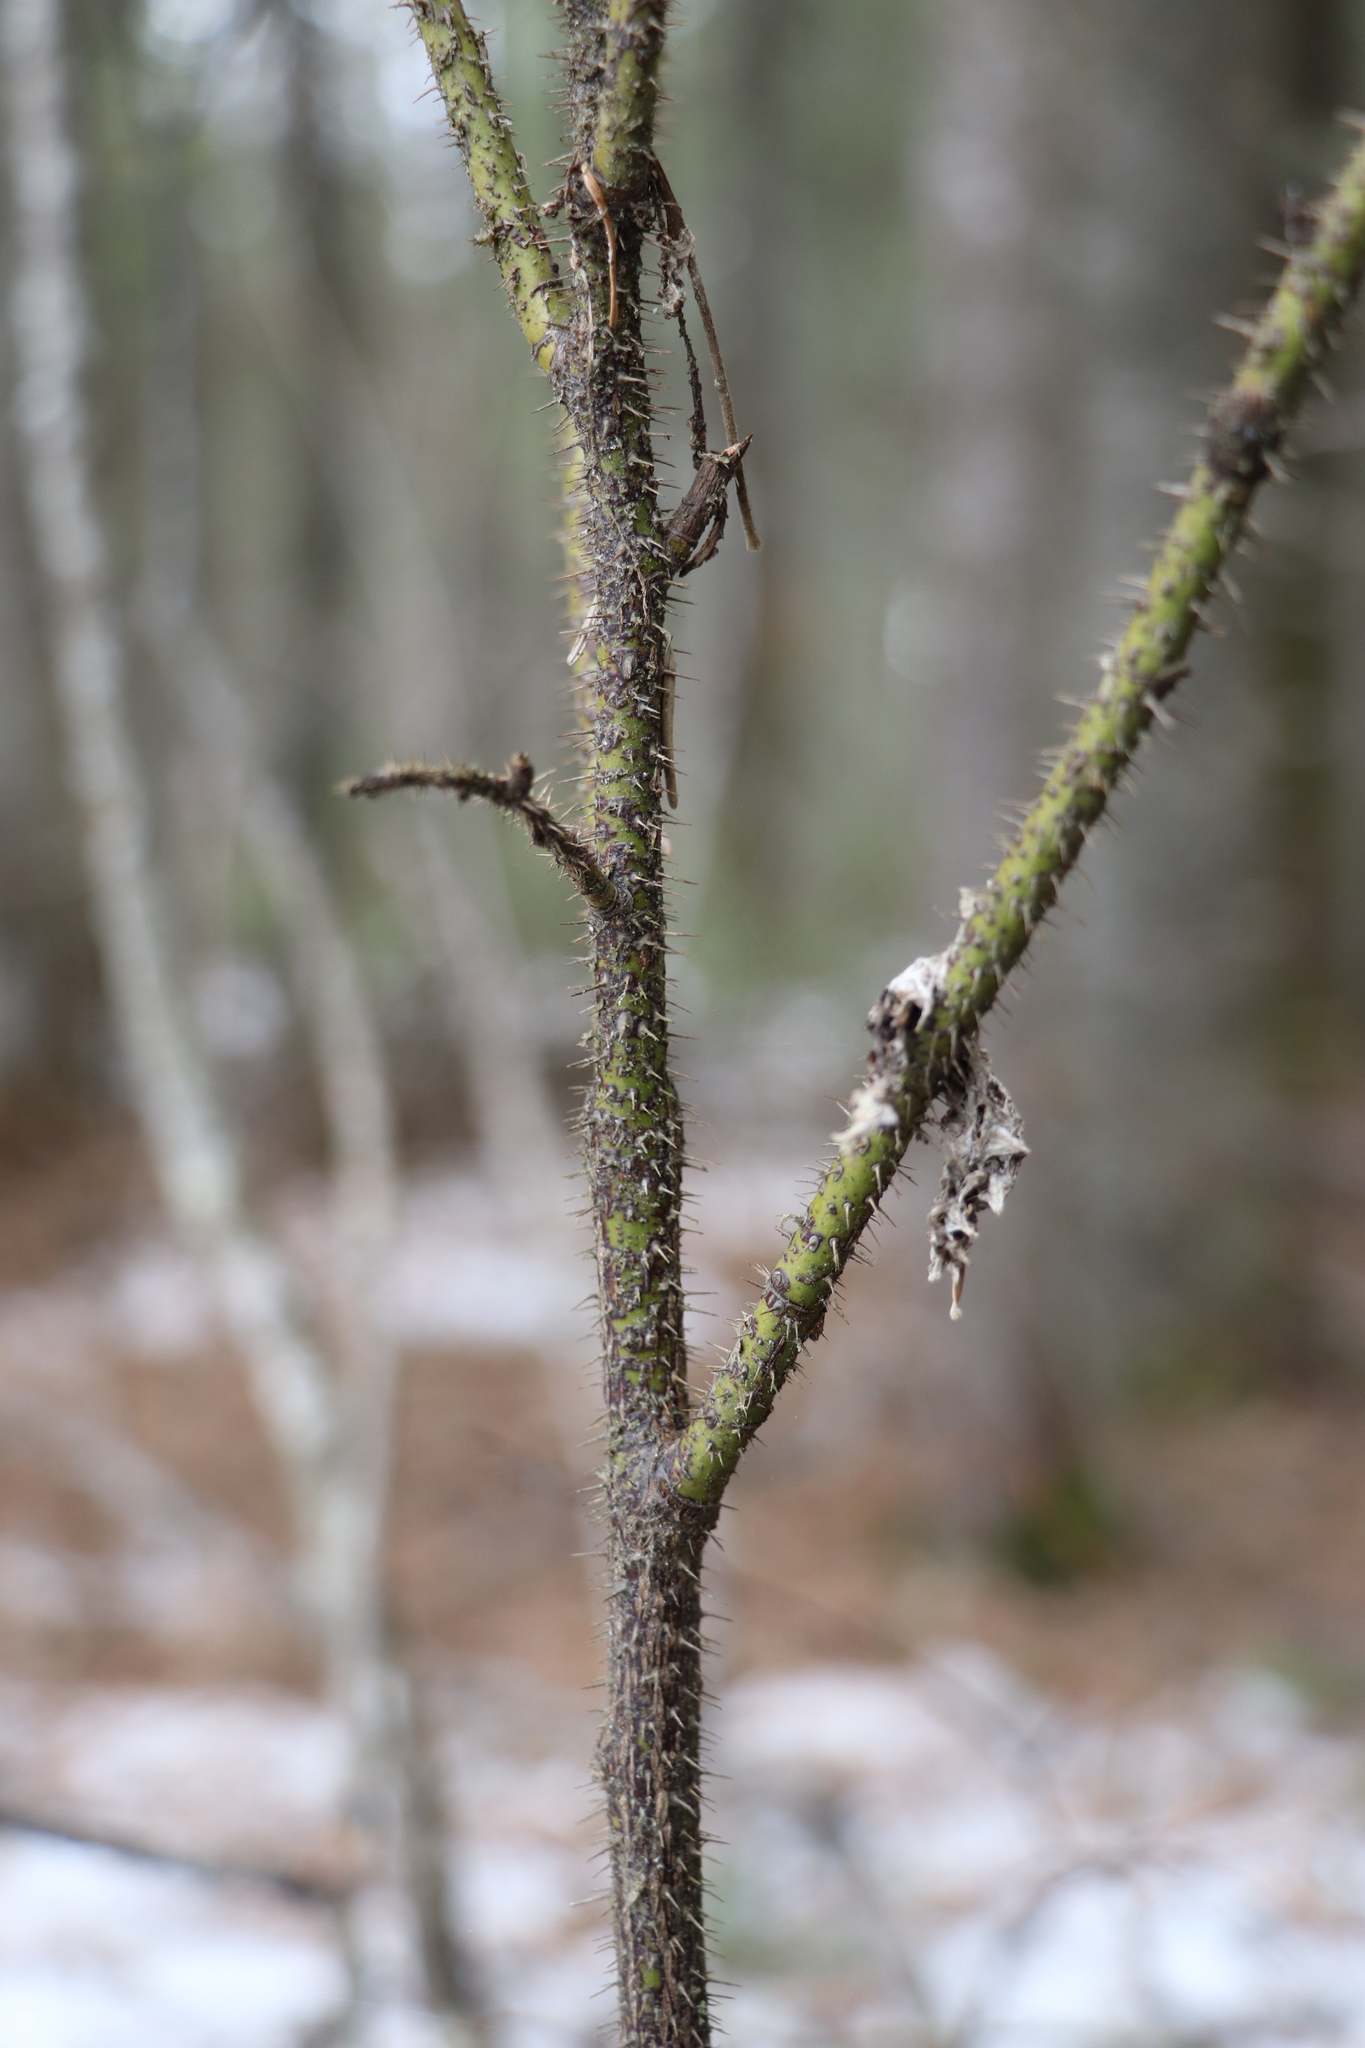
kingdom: Plantae
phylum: Tracheophyta
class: Magnoliopsida
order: Rosales
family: Rosaceae
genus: Rosa
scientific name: Rosa acicularis
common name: Prickly rose
